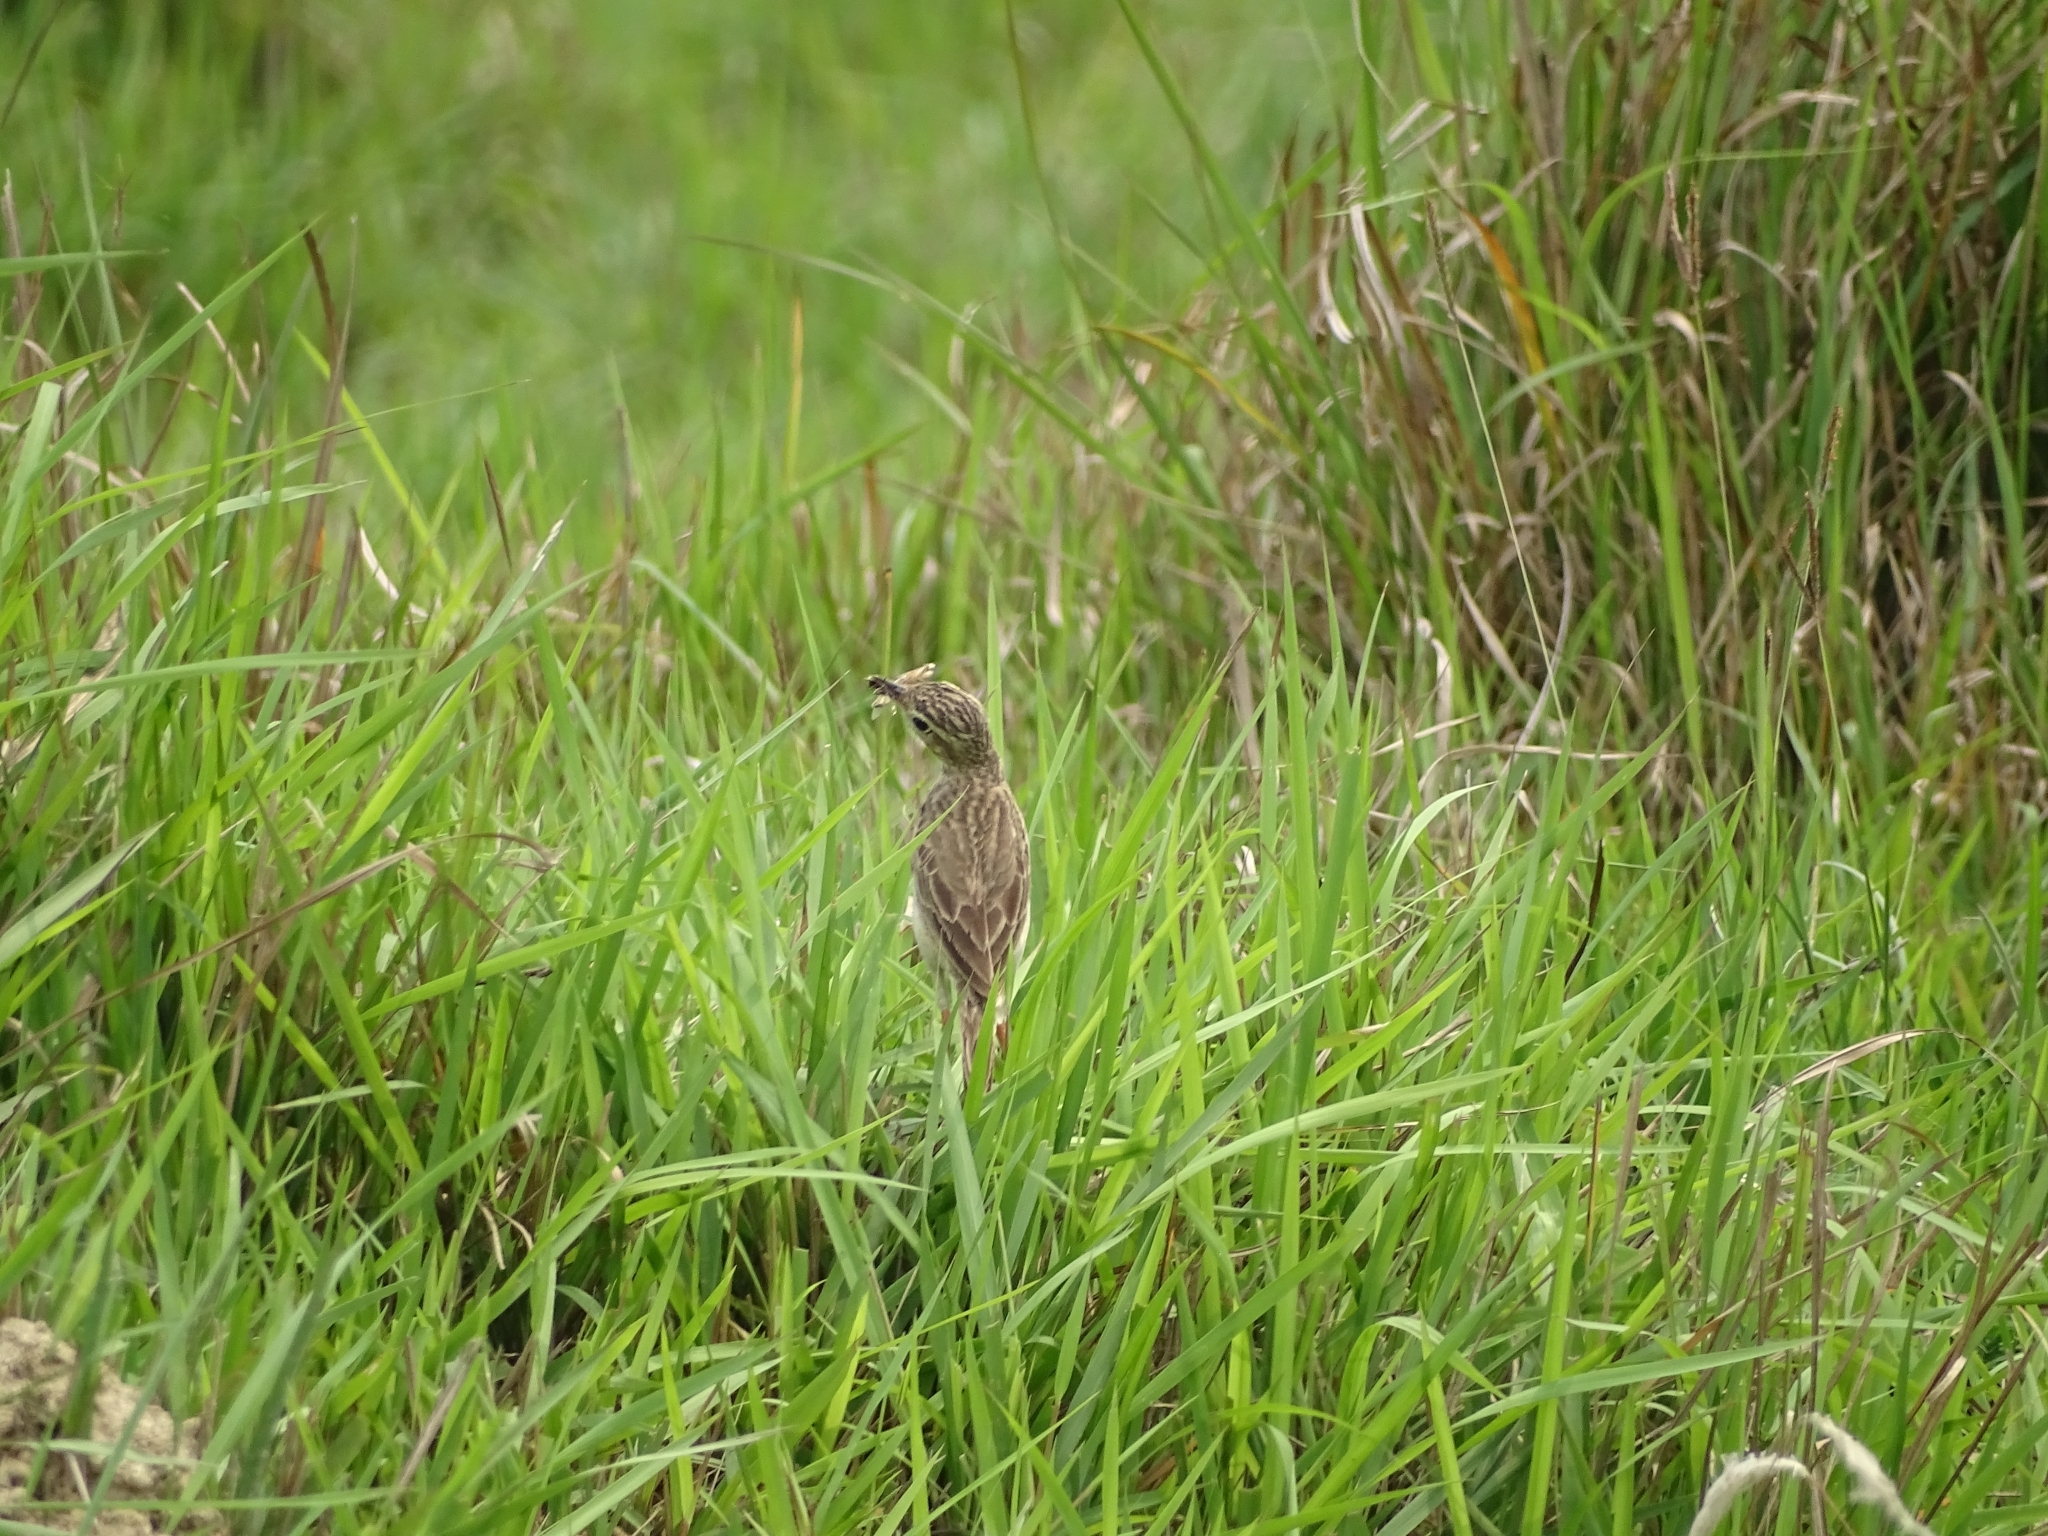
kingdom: Animalia
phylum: Chordata
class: Aves
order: Passeriformes
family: Motacillidae
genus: Anthus
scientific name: Anthus rufulus
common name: Paddyfield pipit
